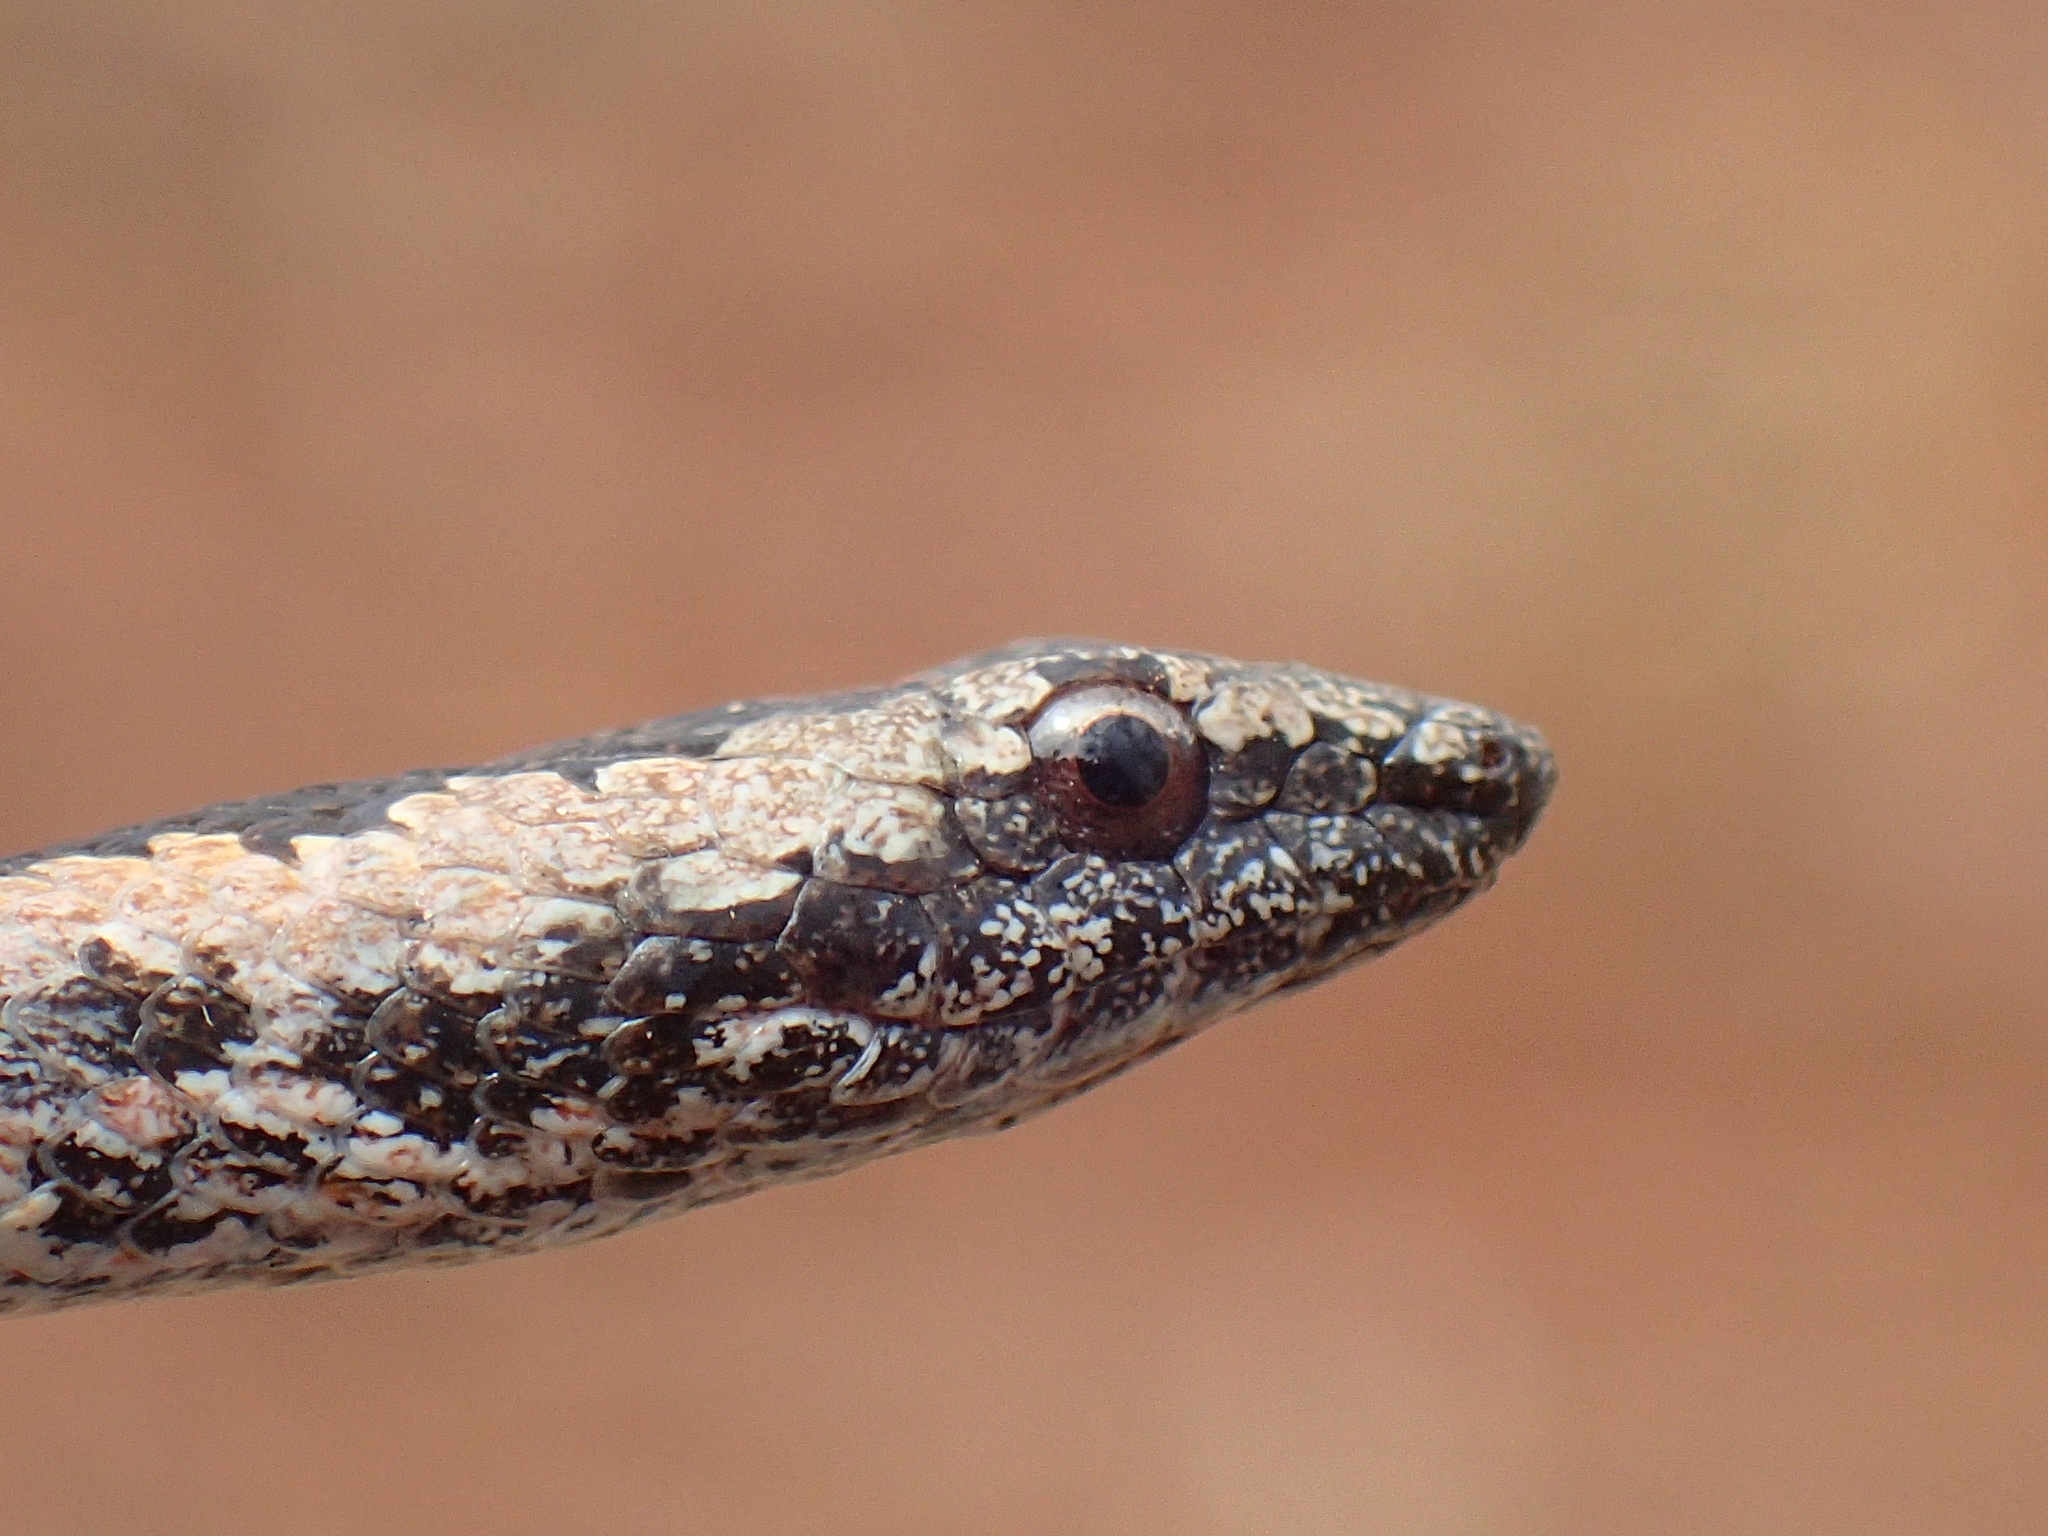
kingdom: Animalia
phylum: Chordata
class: Squamata
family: Psammophiidae
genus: Hemirhagerrhis
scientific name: Hemirhagerrhis nototaenia
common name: Mopane snake
